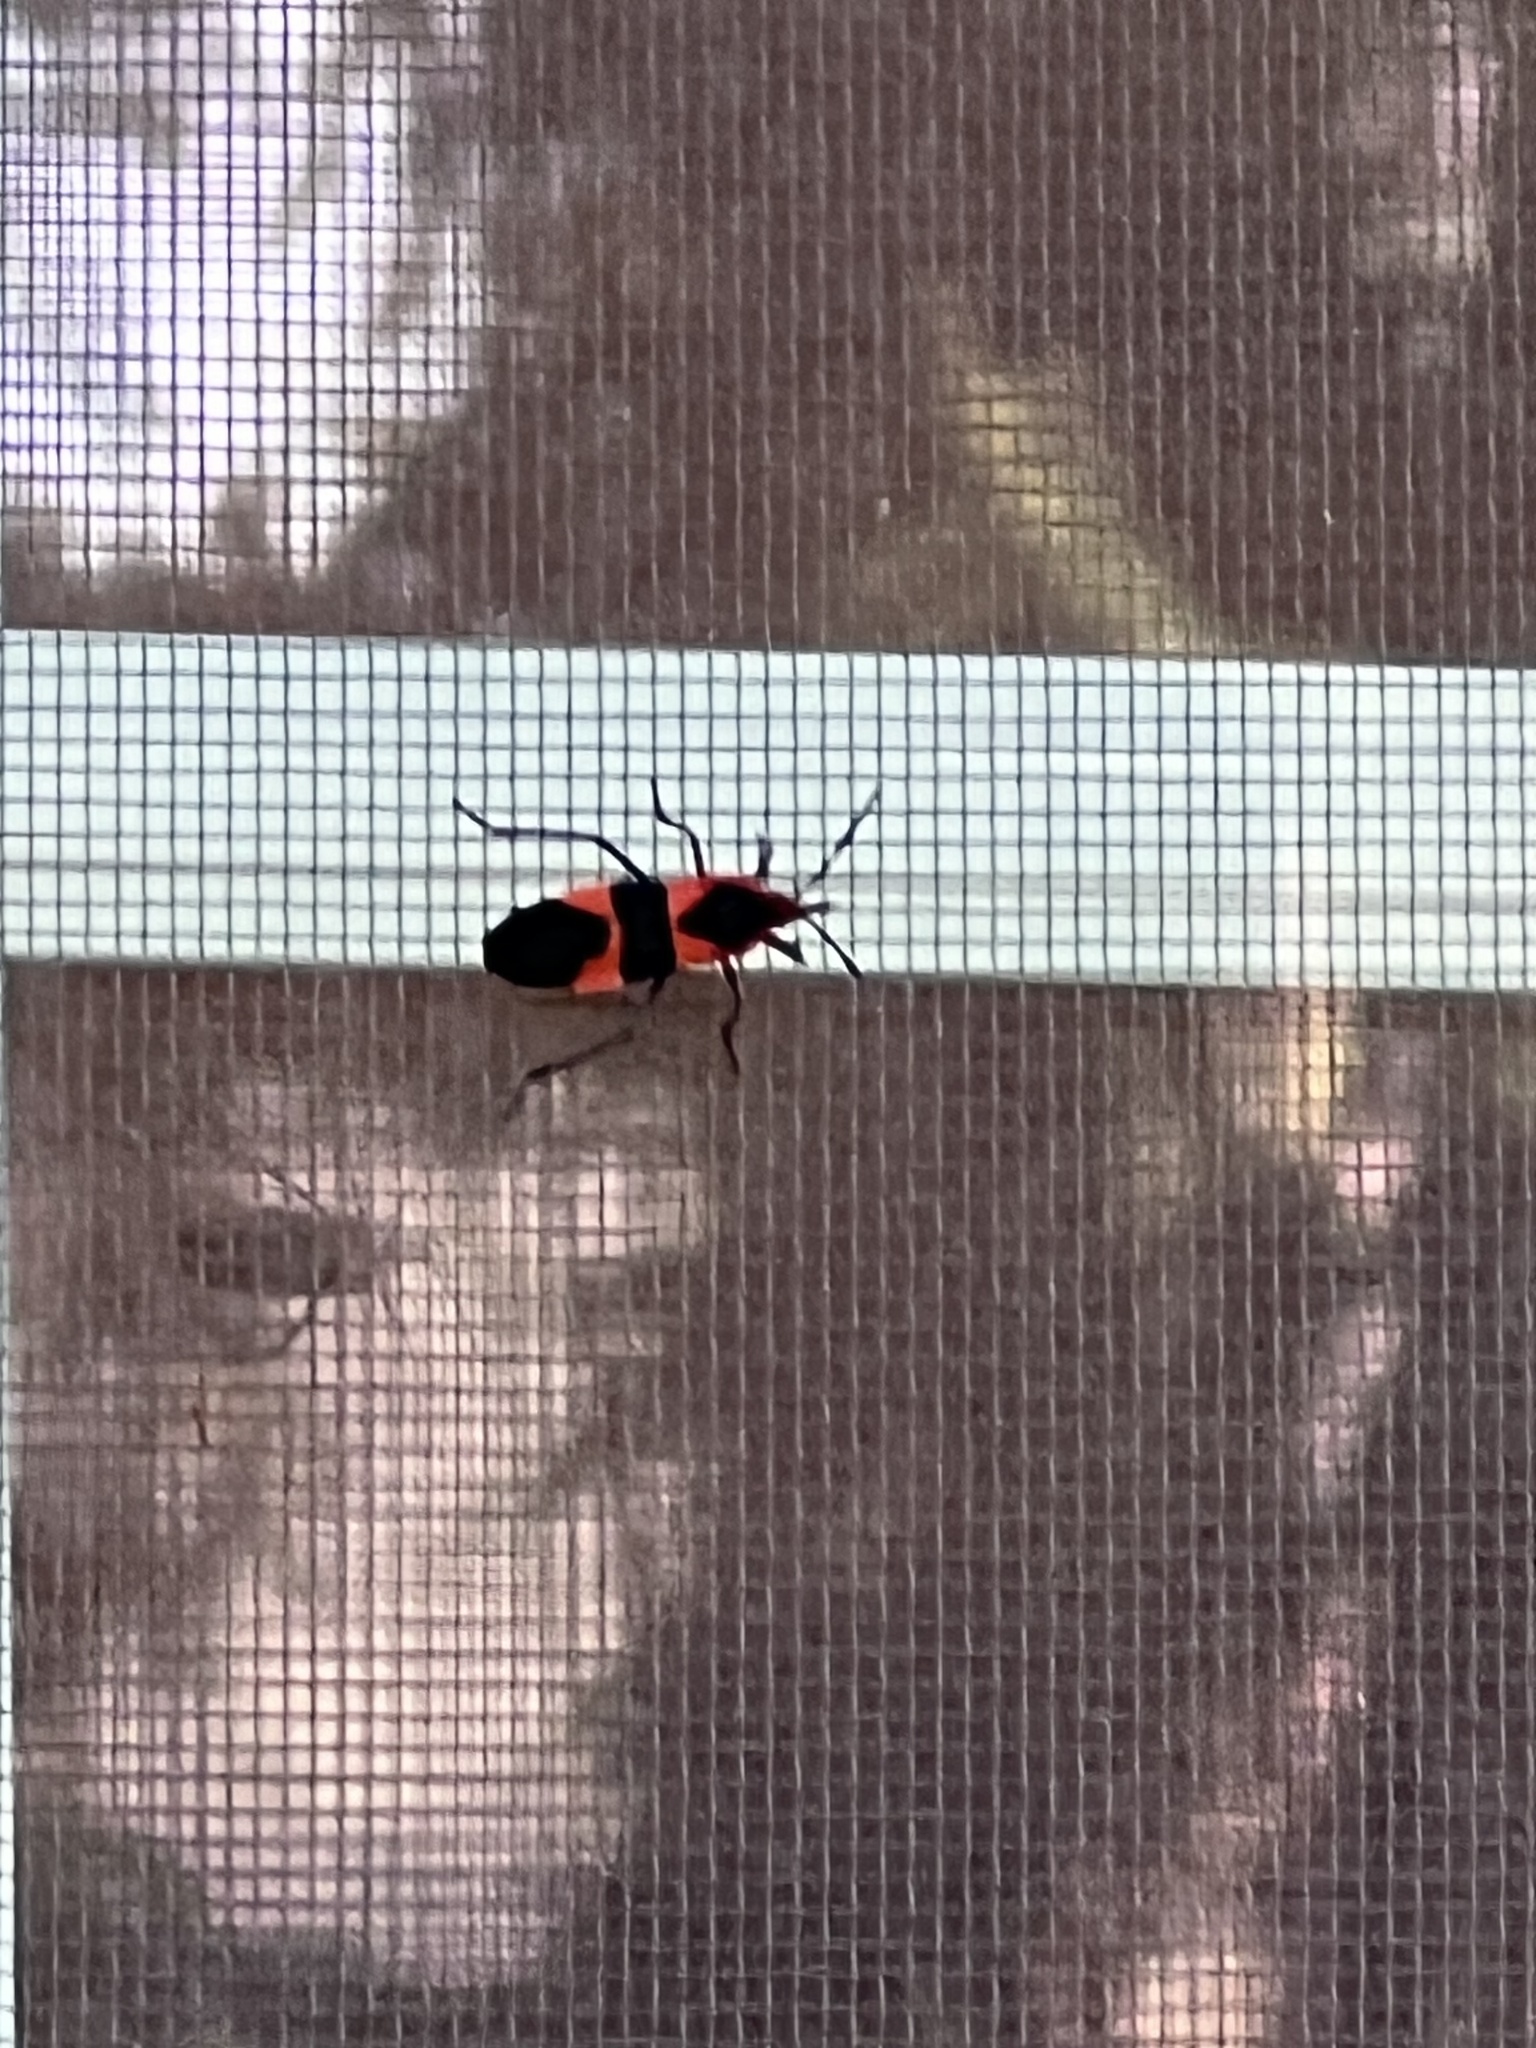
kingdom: Animalia
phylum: Arthropoda
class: Insecta
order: Hemiptera
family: Lygaeidae
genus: Oncopeltus
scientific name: Oncopeltus fasciatus
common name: Large milkweed bug
